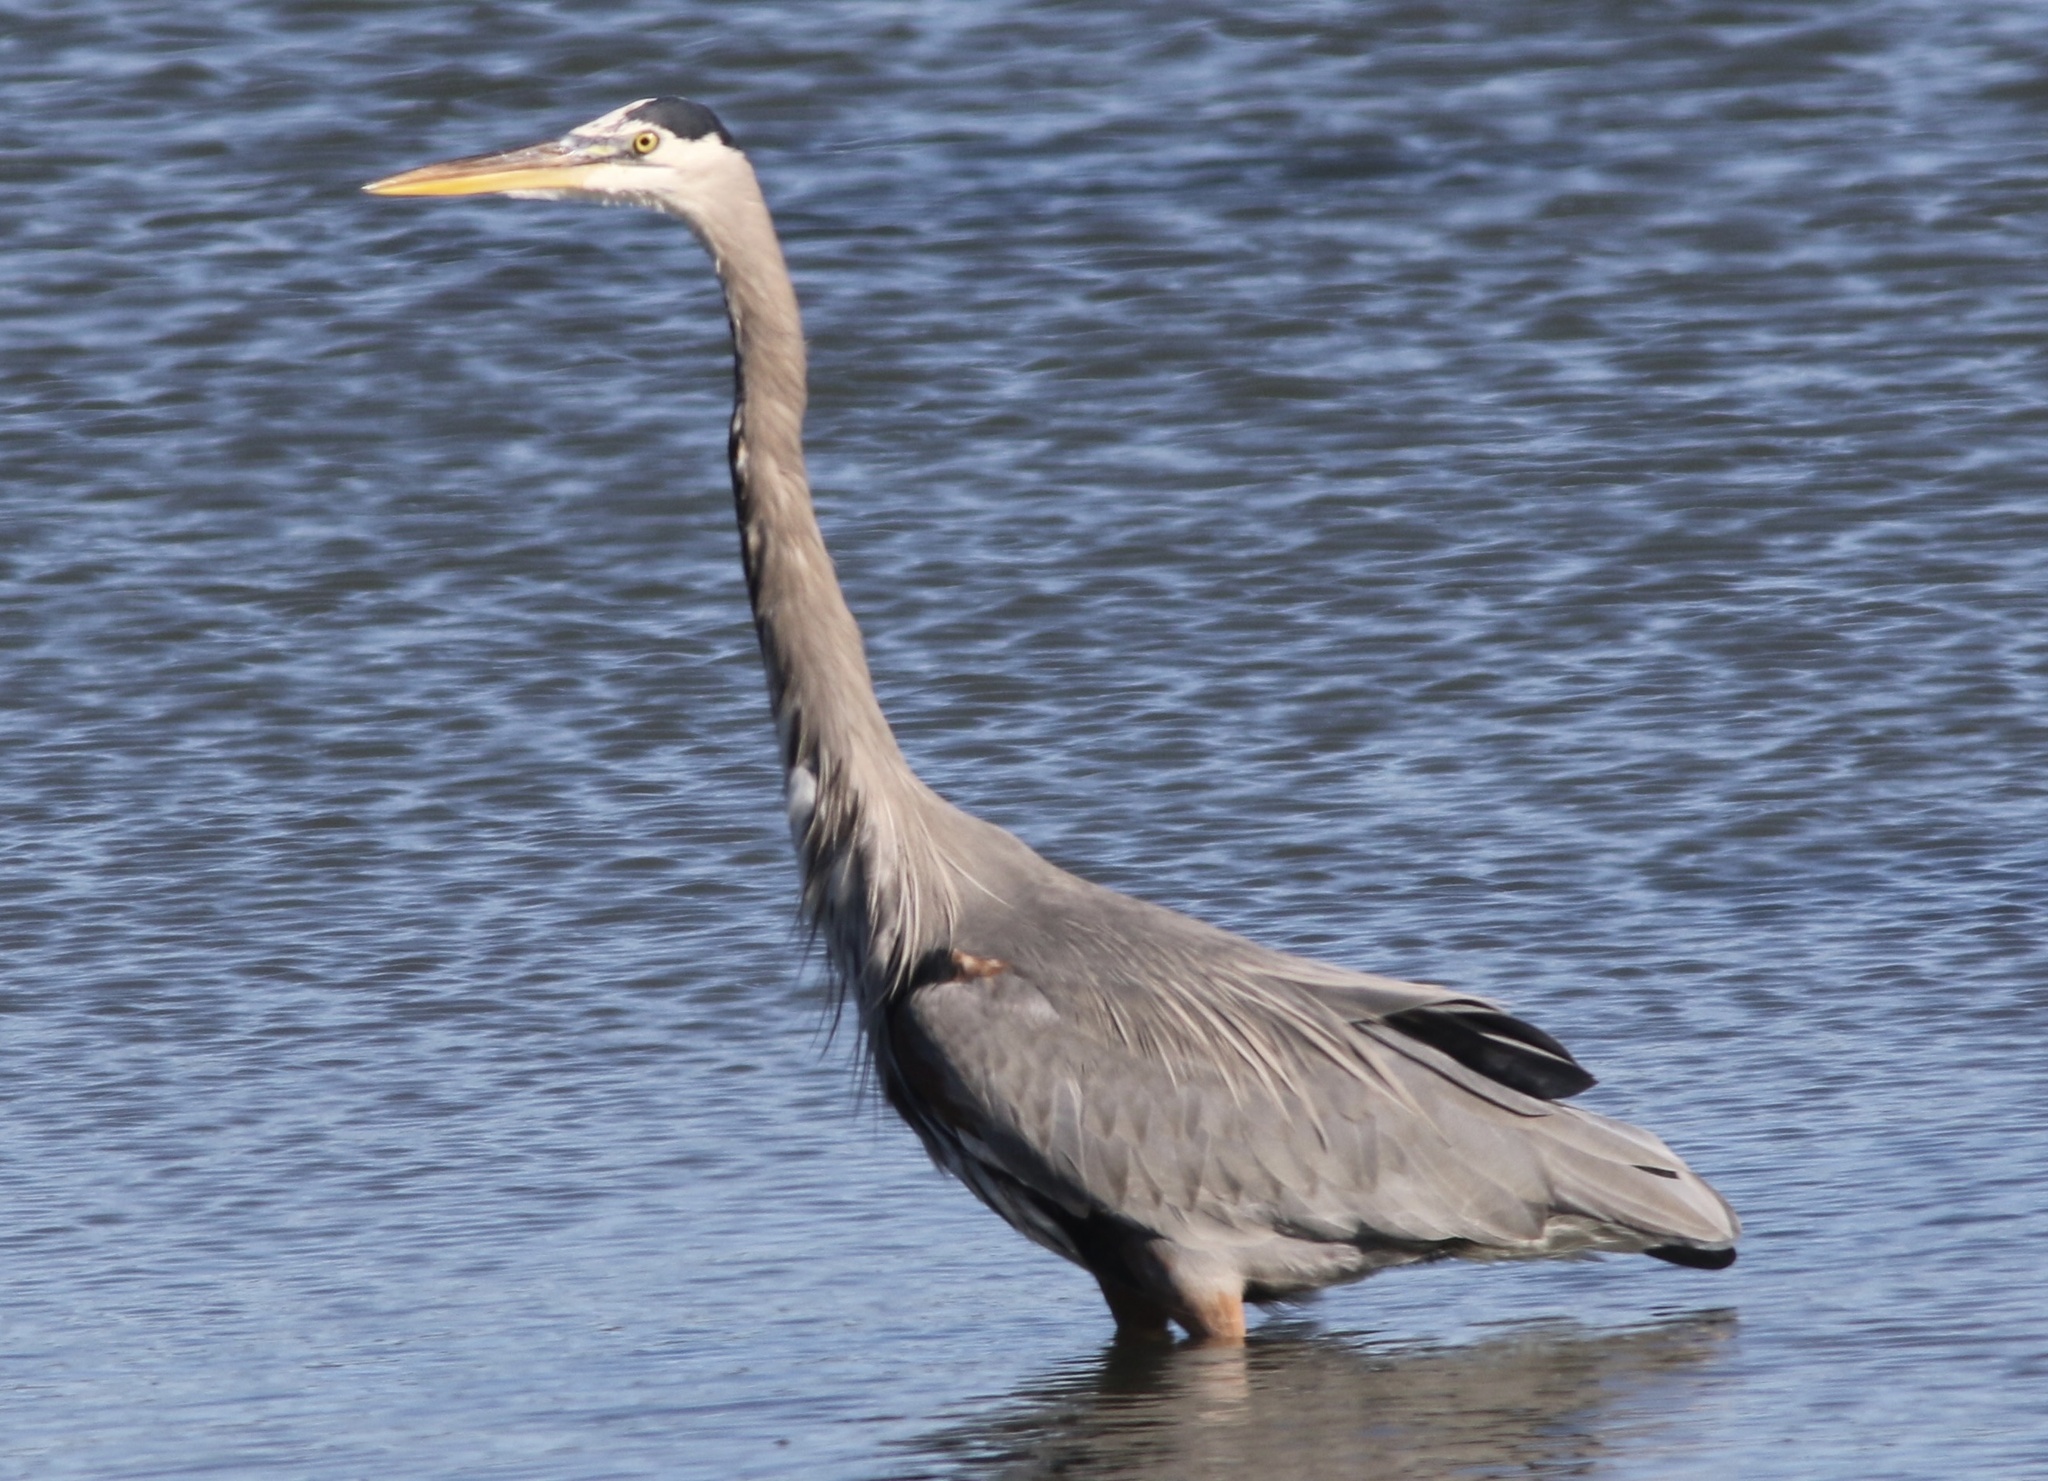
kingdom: Animalia
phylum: Chordata
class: Aves
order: Pelecaniformes
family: Ardeidae
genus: Ardea
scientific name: Ardea herodias
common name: Great blue heron
